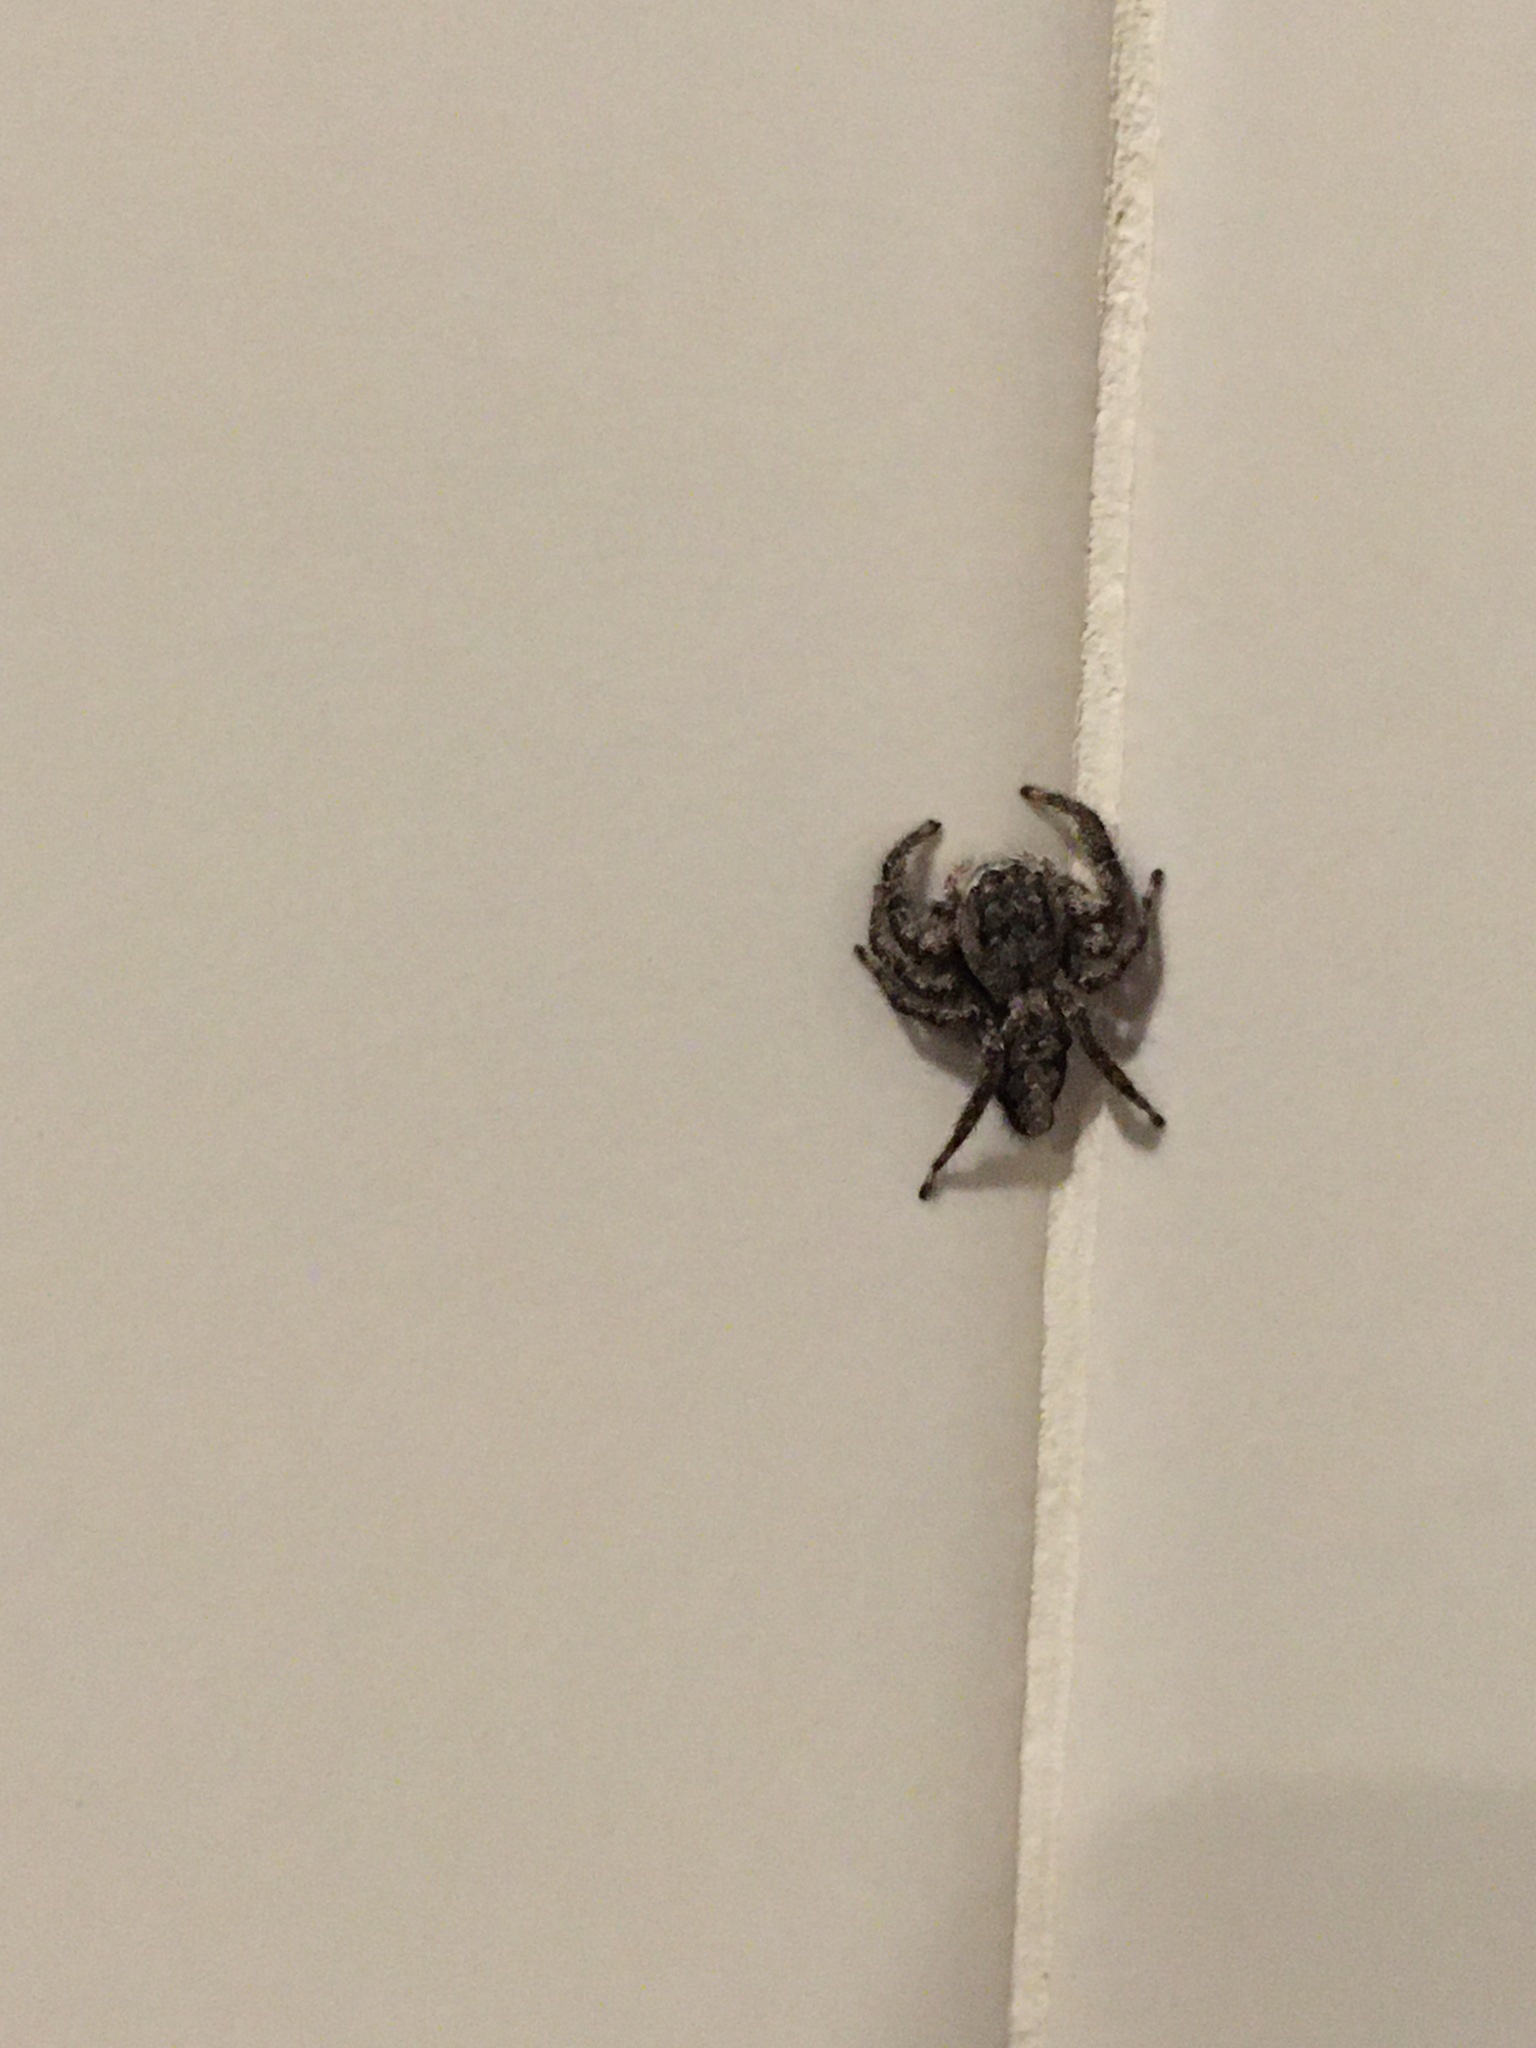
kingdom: Animalia
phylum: Arthropoda
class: Arachnida
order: Araneae
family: Salticidae
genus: Platycryptus
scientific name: Platycryptus undatus
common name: Tan jumping spider
